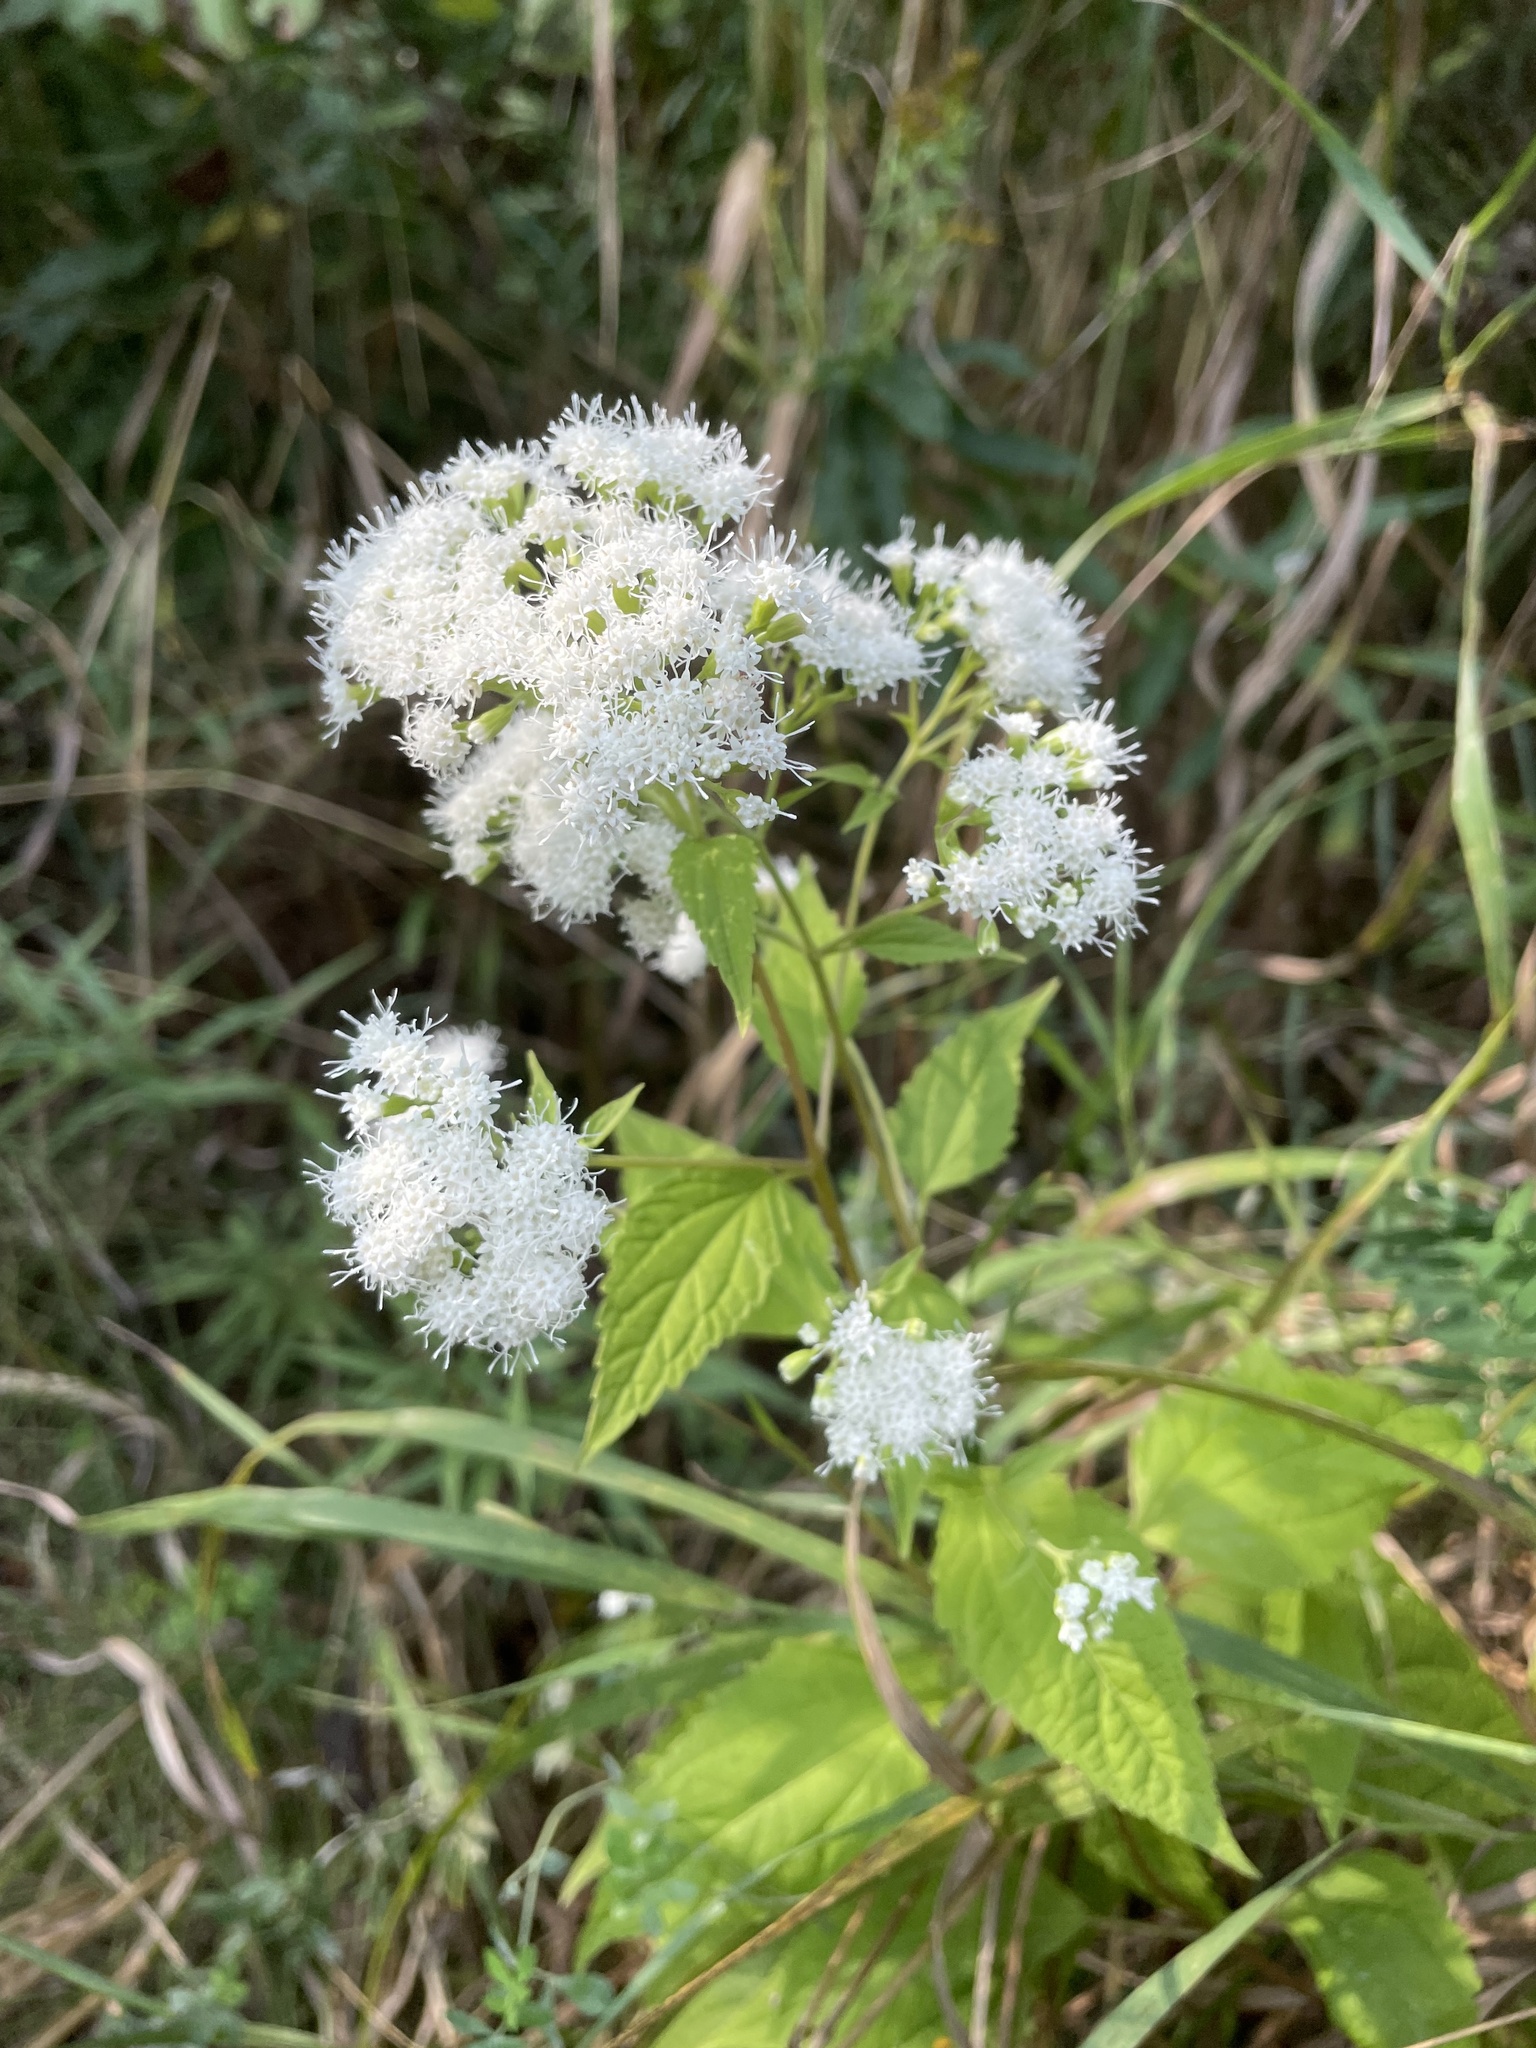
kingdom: Plantae
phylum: Tracheophyta
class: Magnoliopsida
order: Asterales
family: Asteraceae
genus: Ageratina
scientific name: Ageratina altissima
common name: White snakeroot
